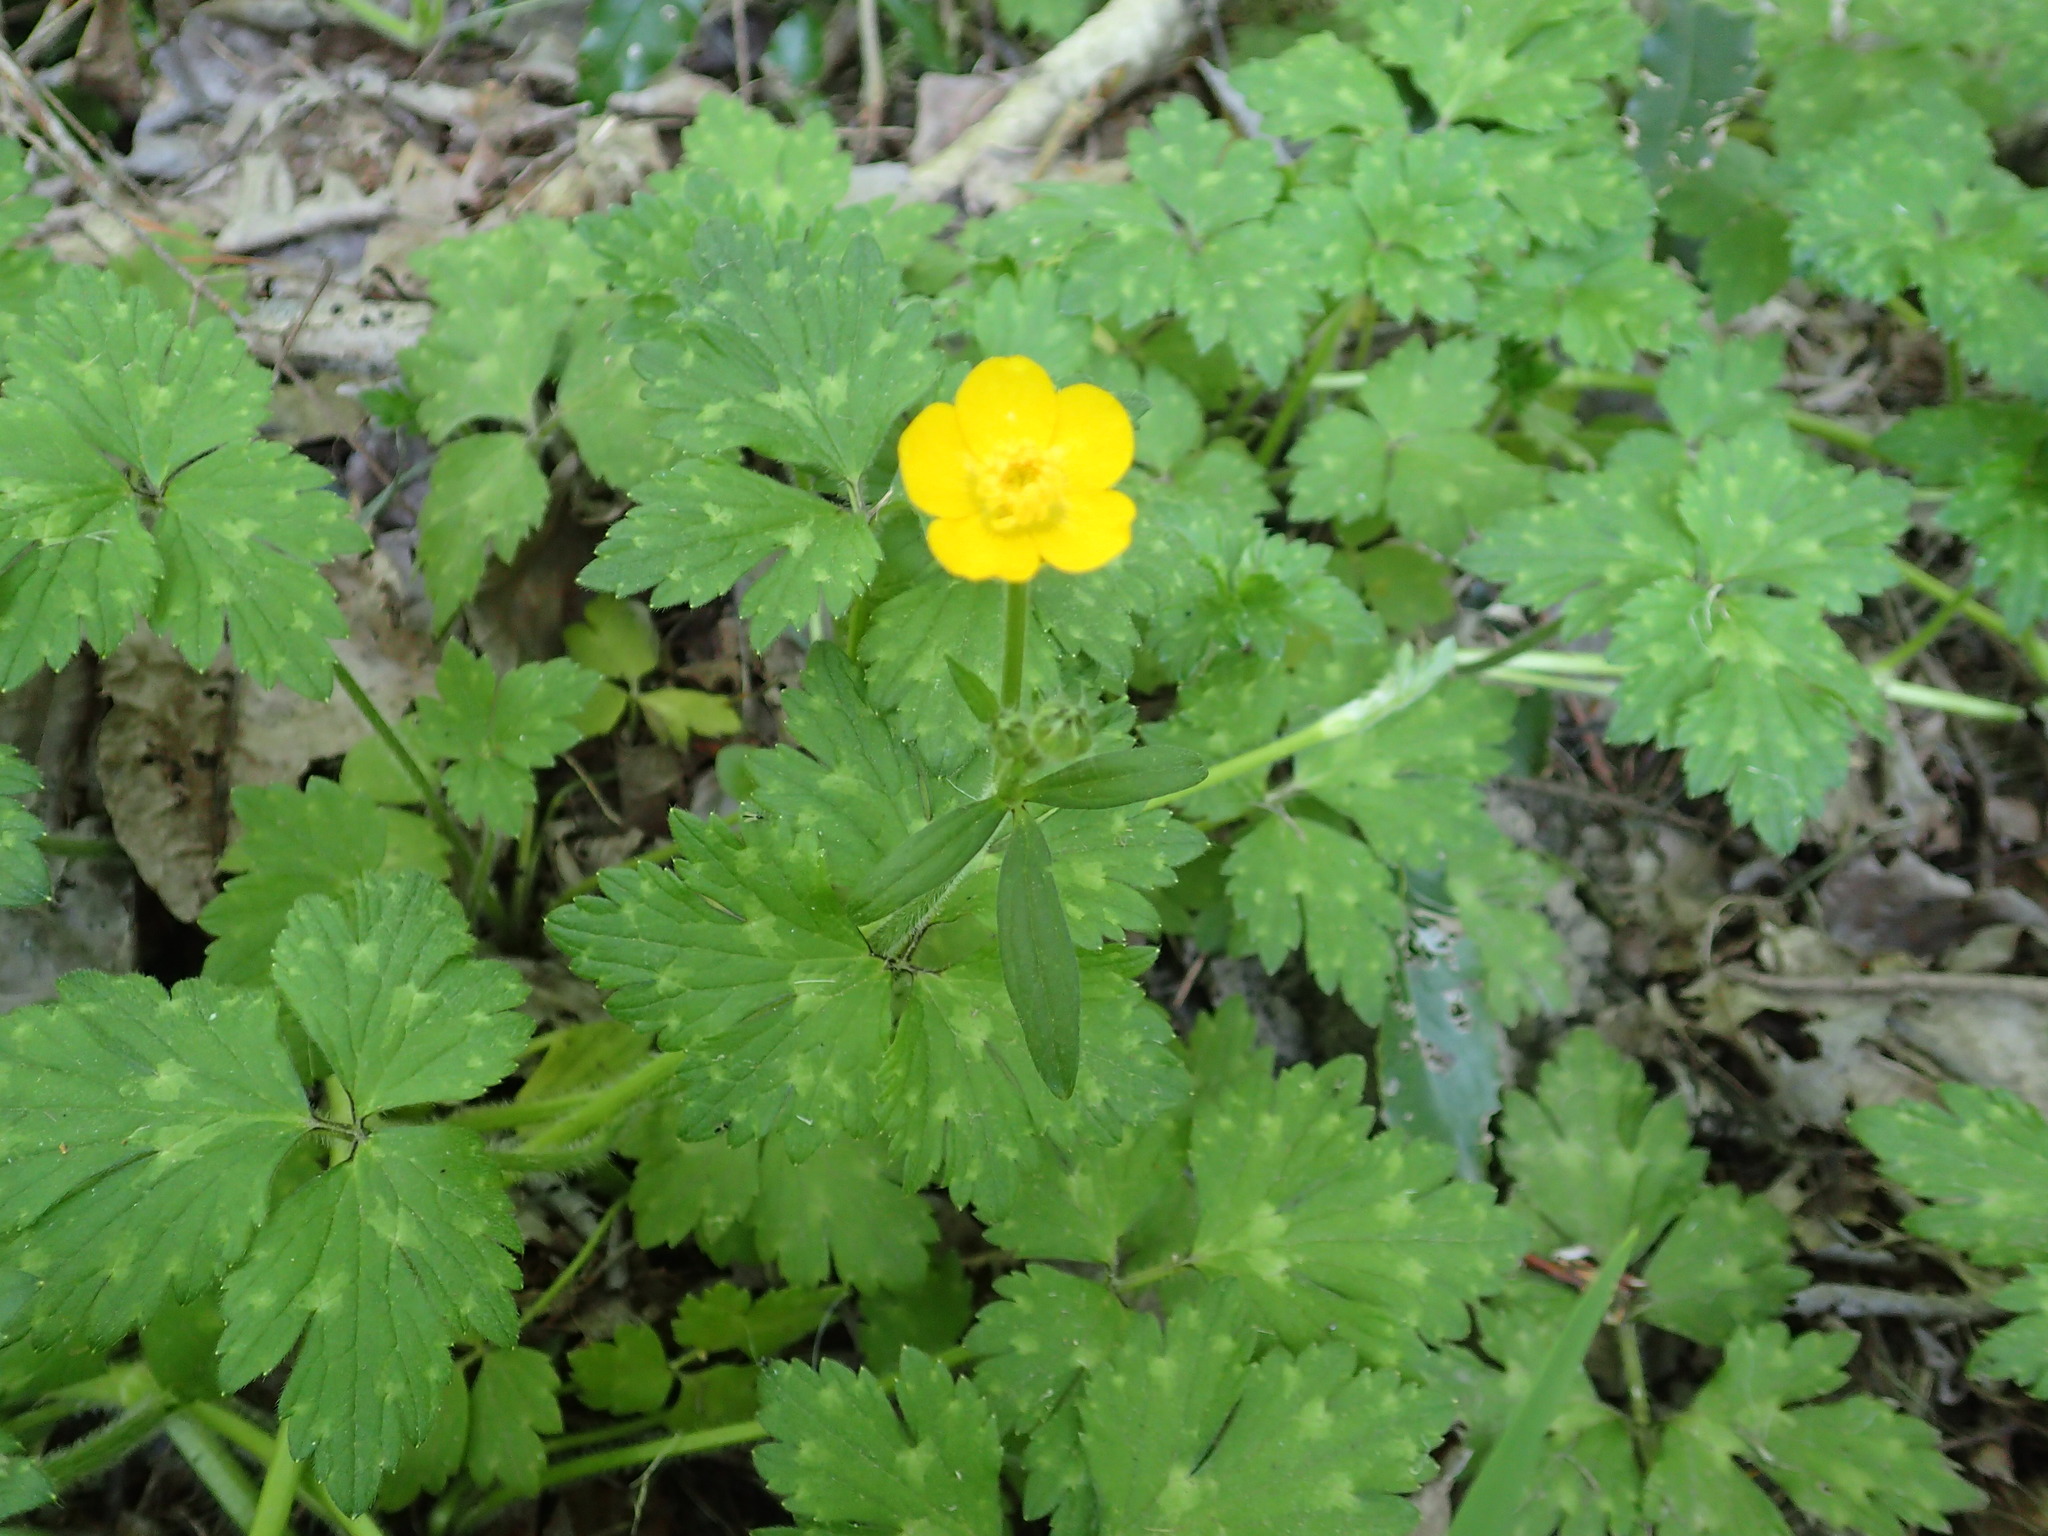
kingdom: Plantae
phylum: Tracheophyta
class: Magnoliopsida
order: Ranunculales
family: Ranunculaceae
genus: Ranunculus
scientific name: Ranunculus repens
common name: Creeping buttercup
